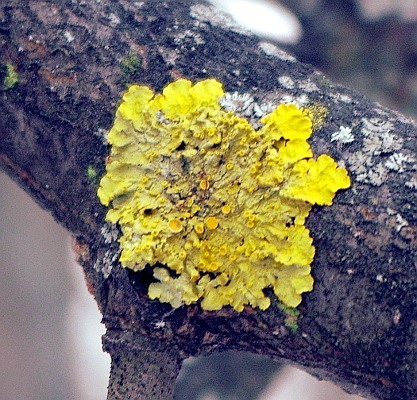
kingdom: Fungi
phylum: Ascomycota
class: Lecanoromycetes
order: Teloschistales
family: Teloschistaceae
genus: Xanthoria
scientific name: Xanthoria parietina
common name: Common orange lichen
